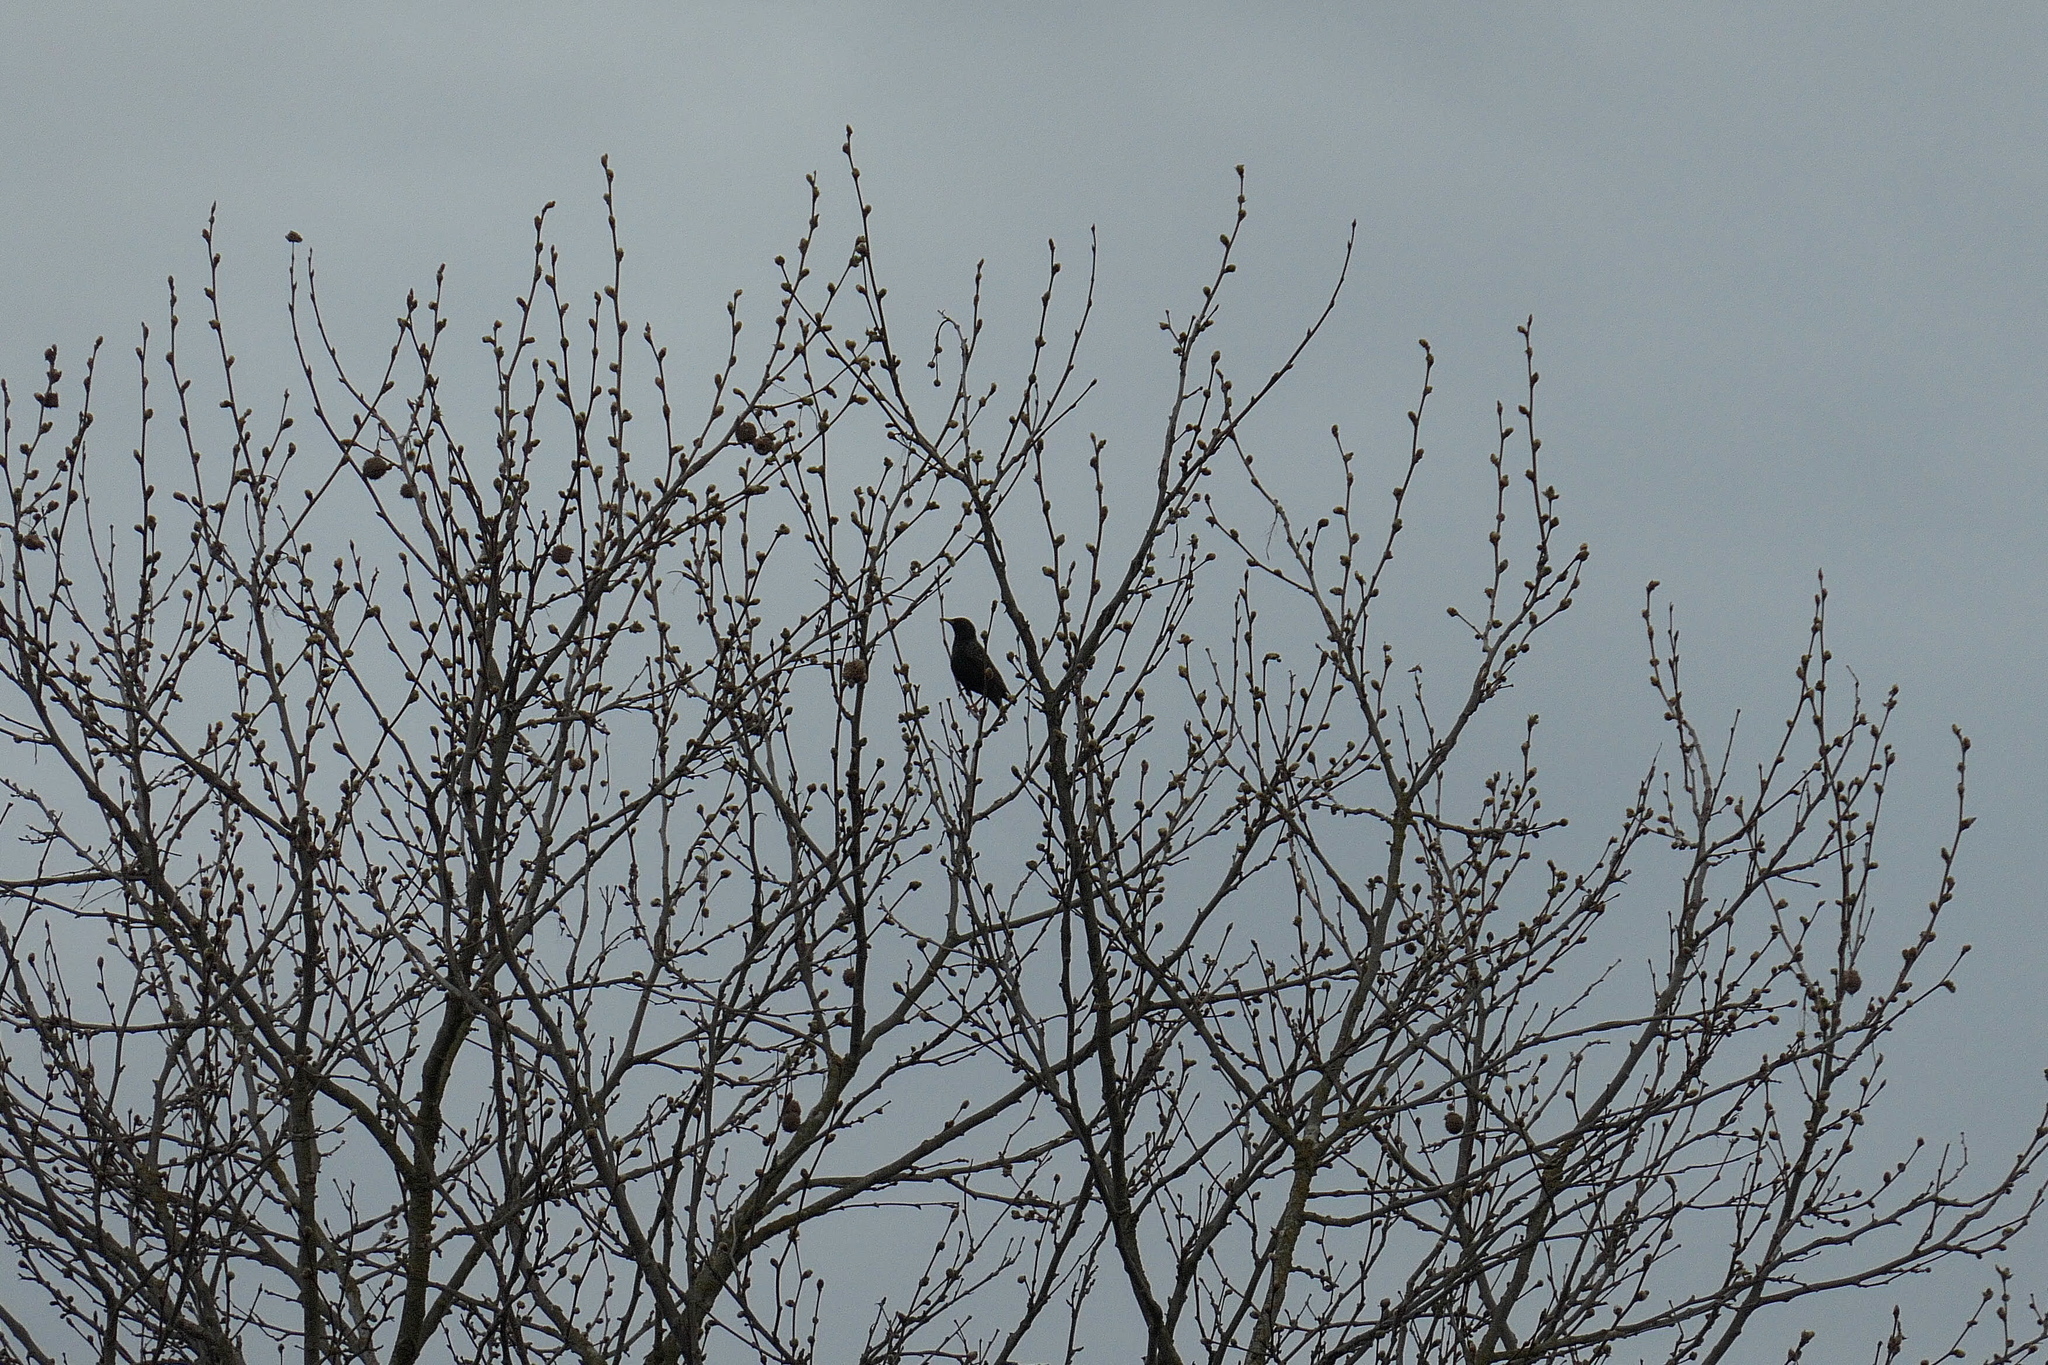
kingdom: Animalia
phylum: Chordata
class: Aves
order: Passeriformes
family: Sturnidae
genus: Sturnus
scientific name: Sturnus vulgaris
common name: Common starling
